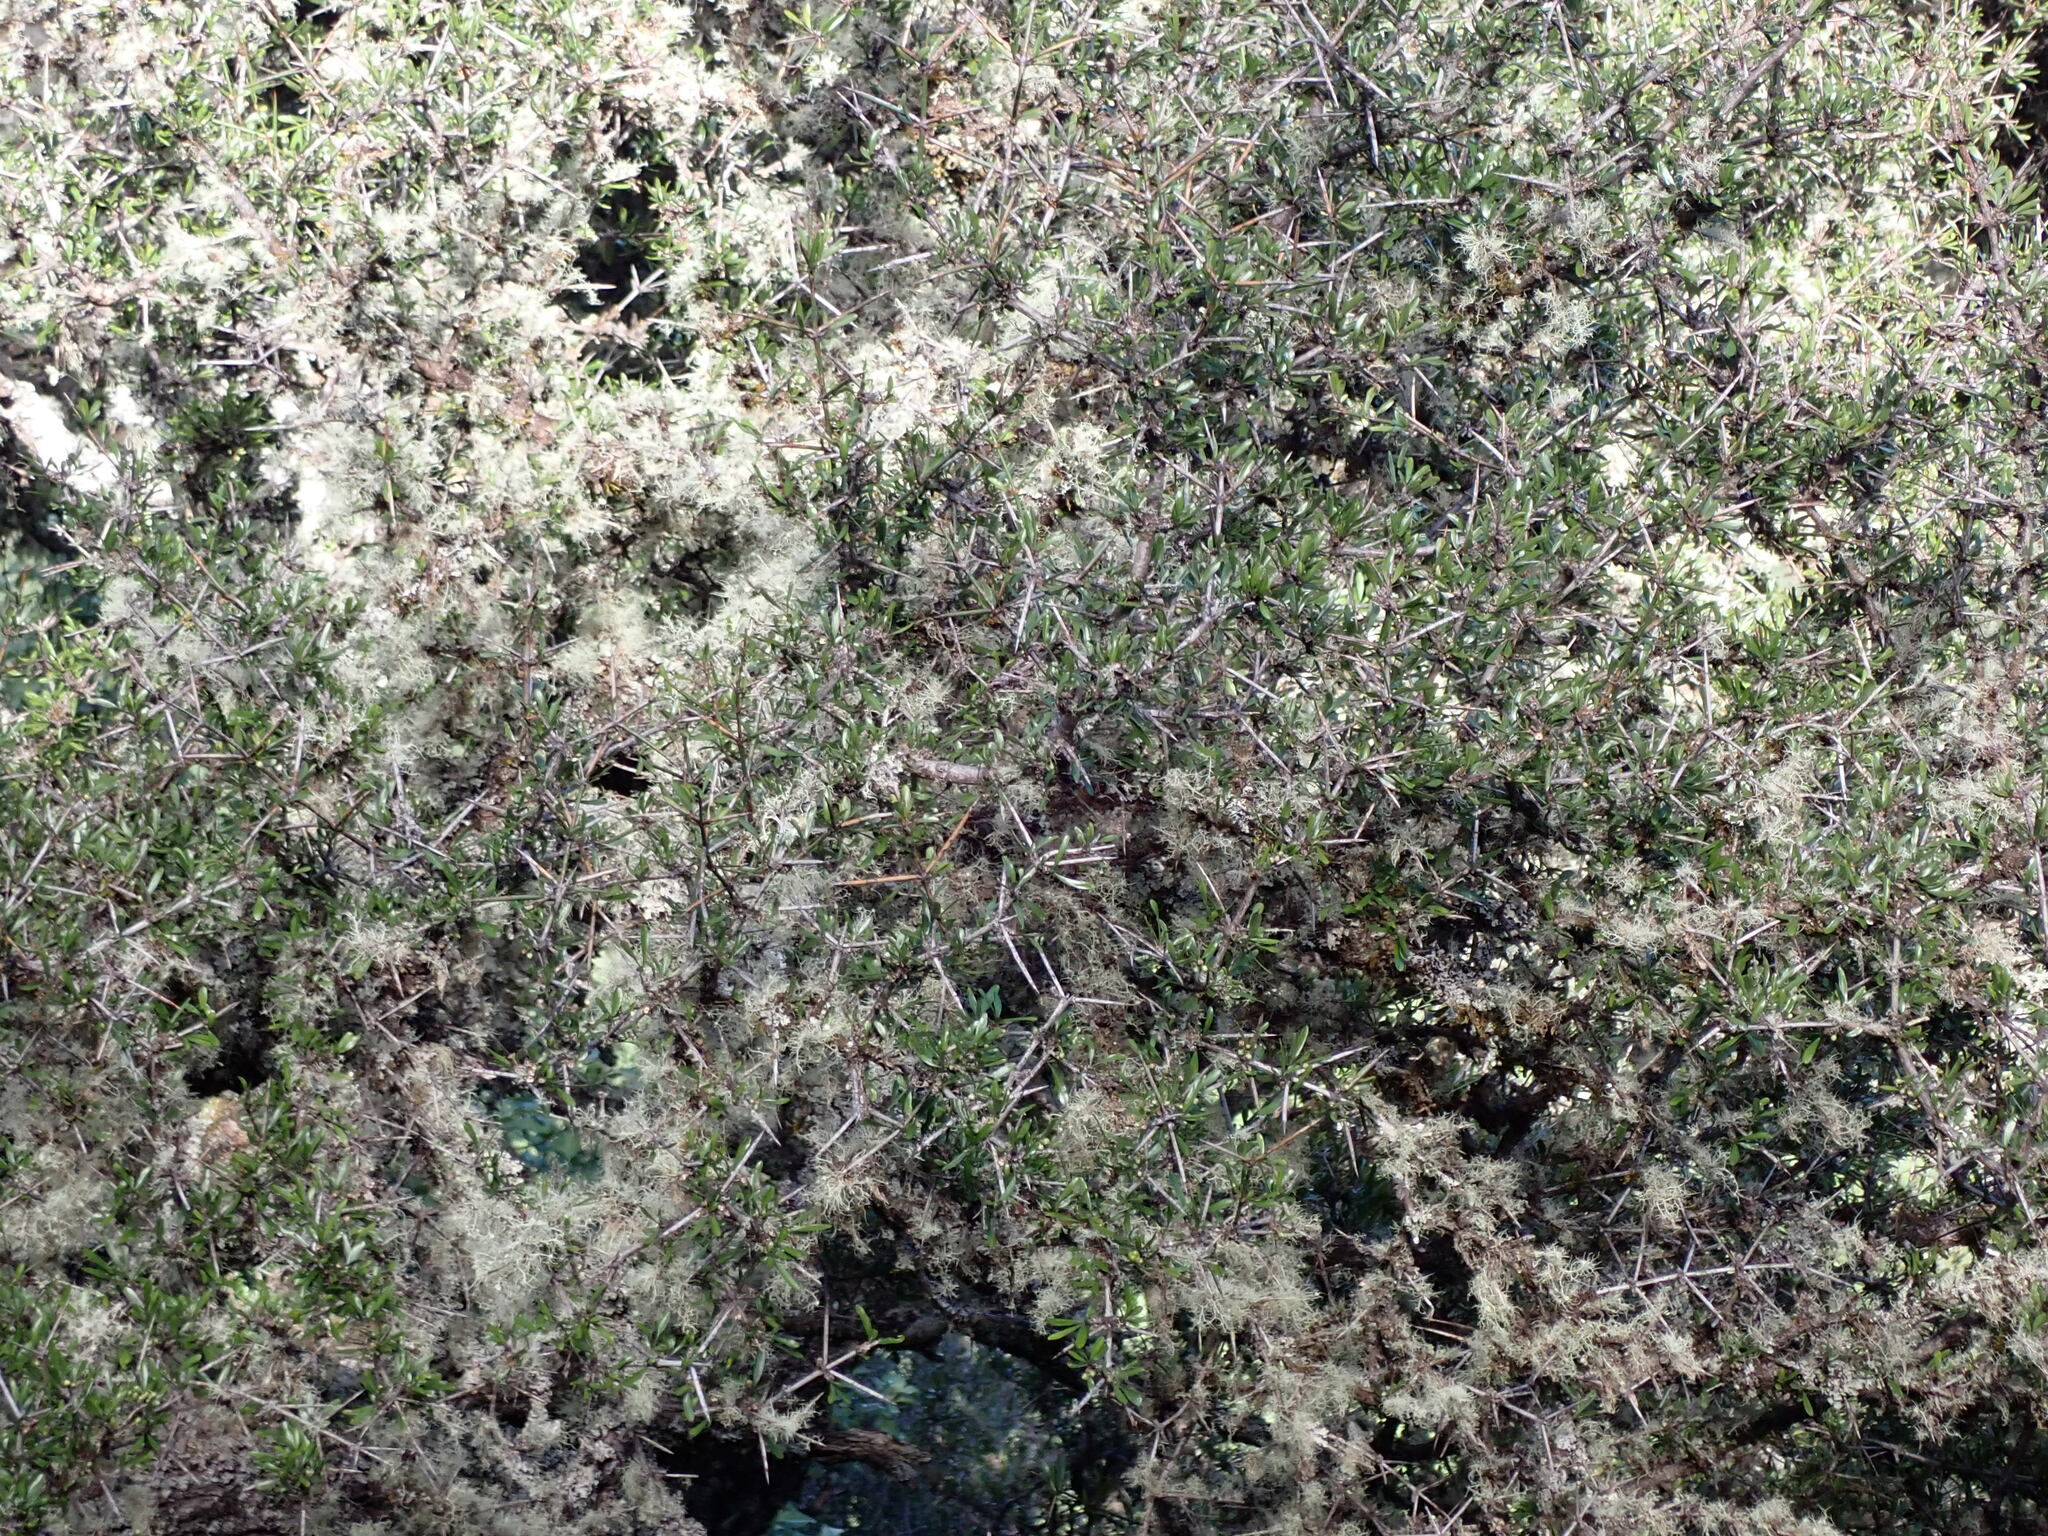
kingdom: Plantae
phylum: Tracheophyta
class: Magnoliopsida
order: Rosales
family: Rhamnaceae
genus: Discaria
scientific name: Discaria toumatou
